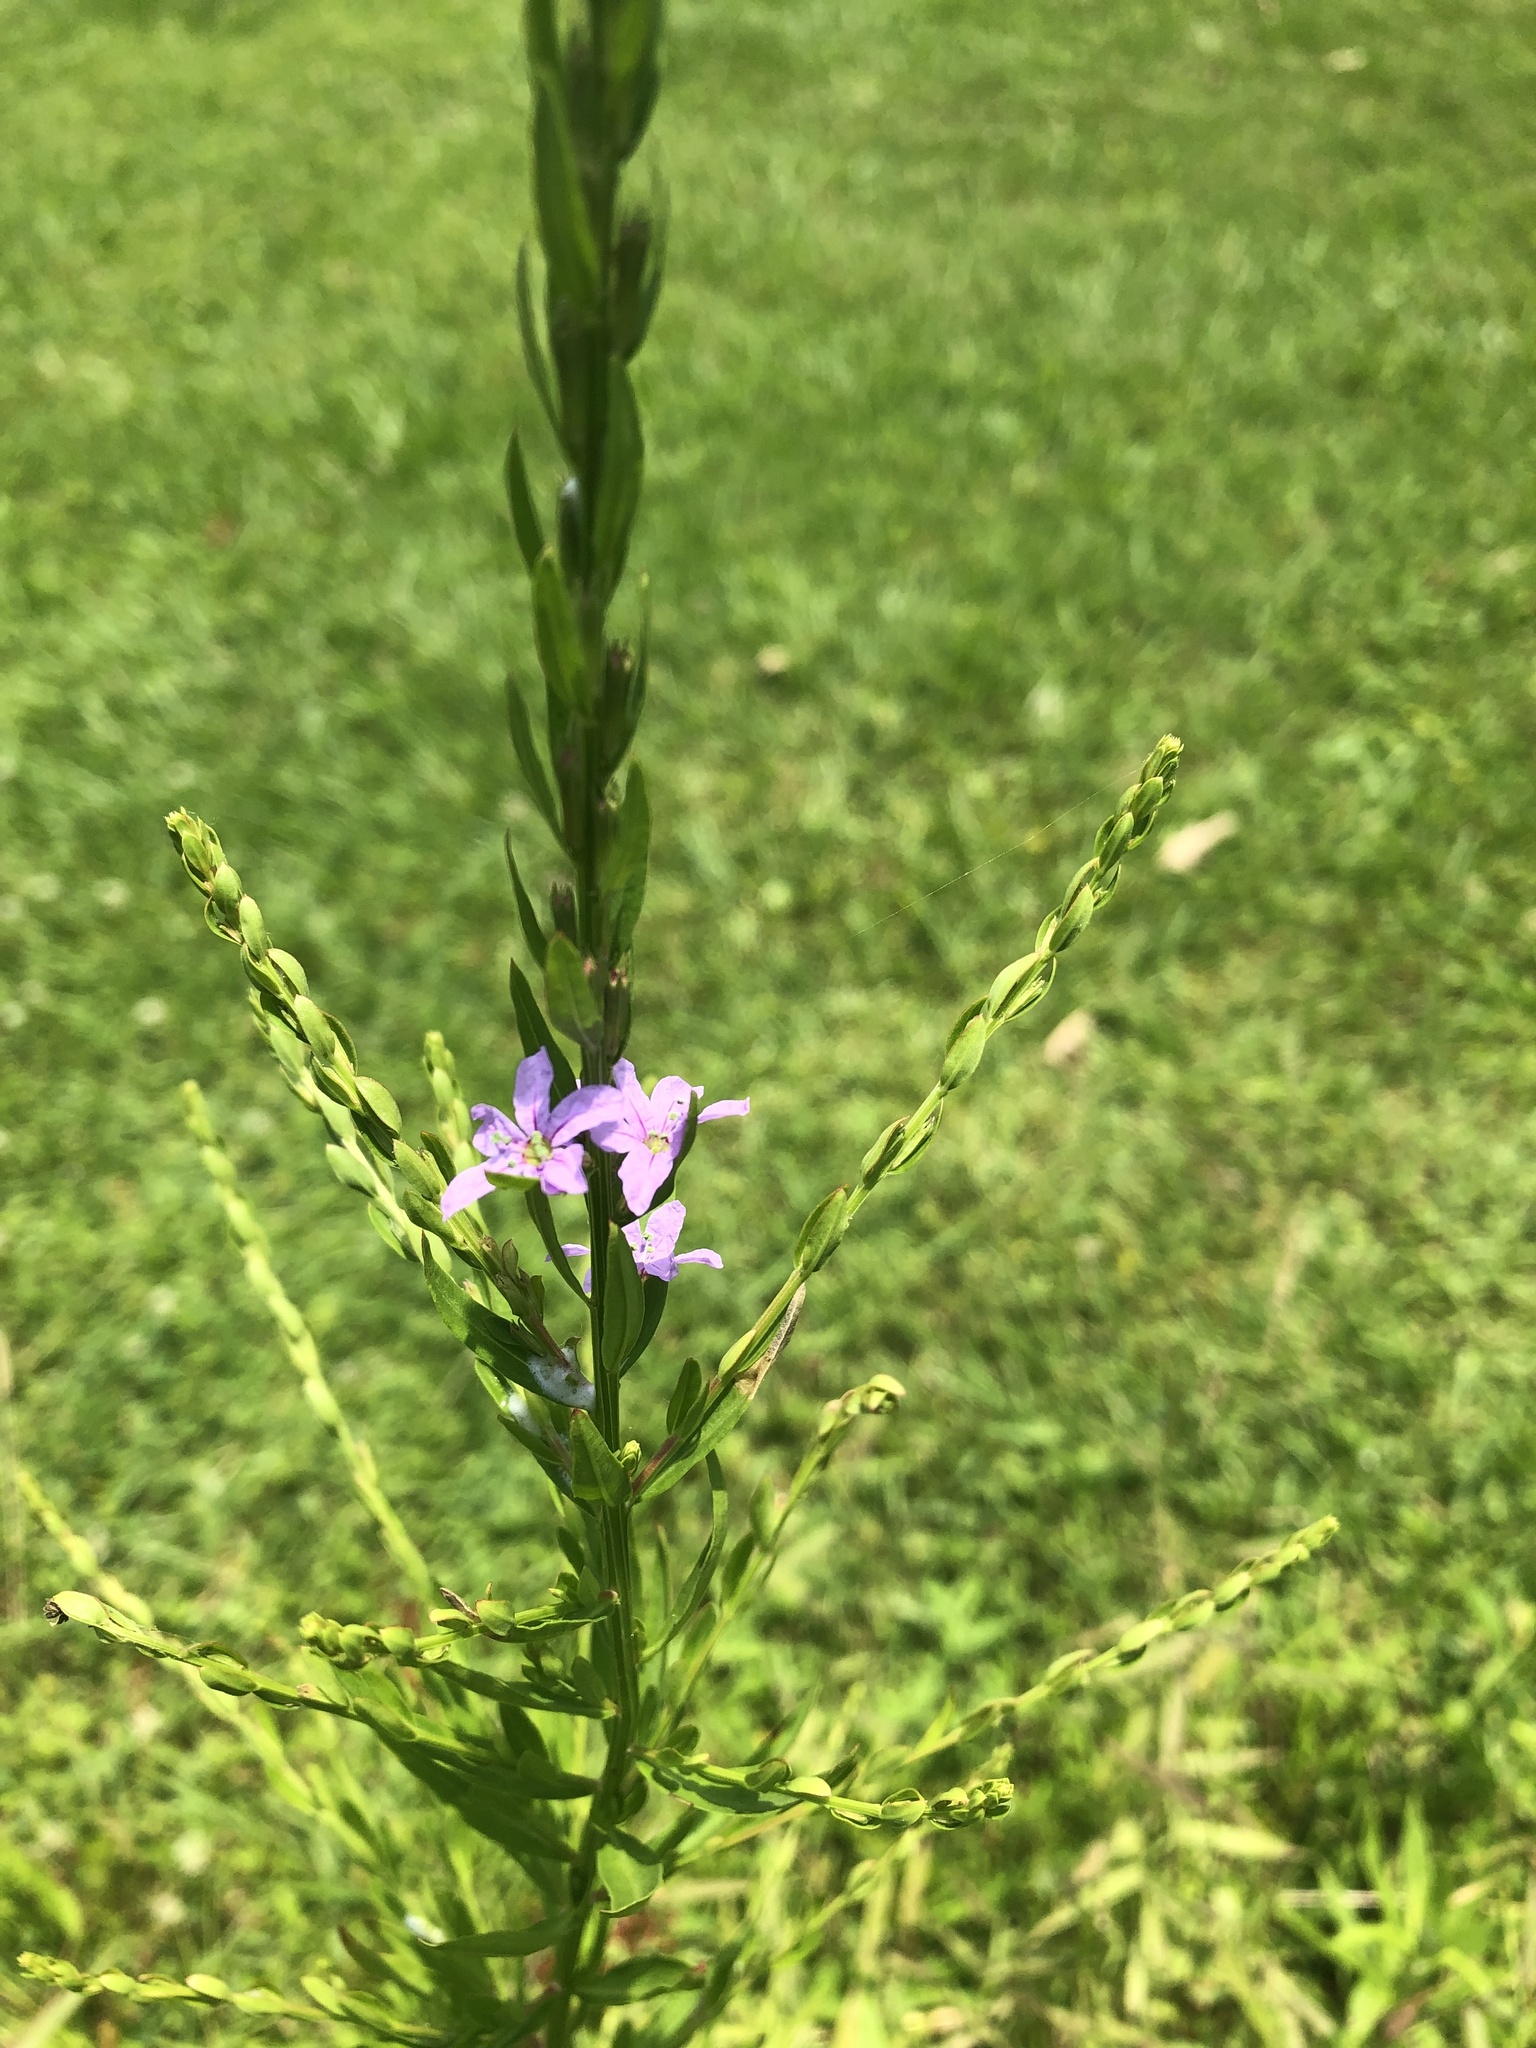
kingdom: Plantae
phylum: Tracheophyta
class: Magnoliopsida
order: Myrtales
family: Lythraceae
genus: Lythrum
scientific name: Lythrum alatum
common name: Winged loosestrife
